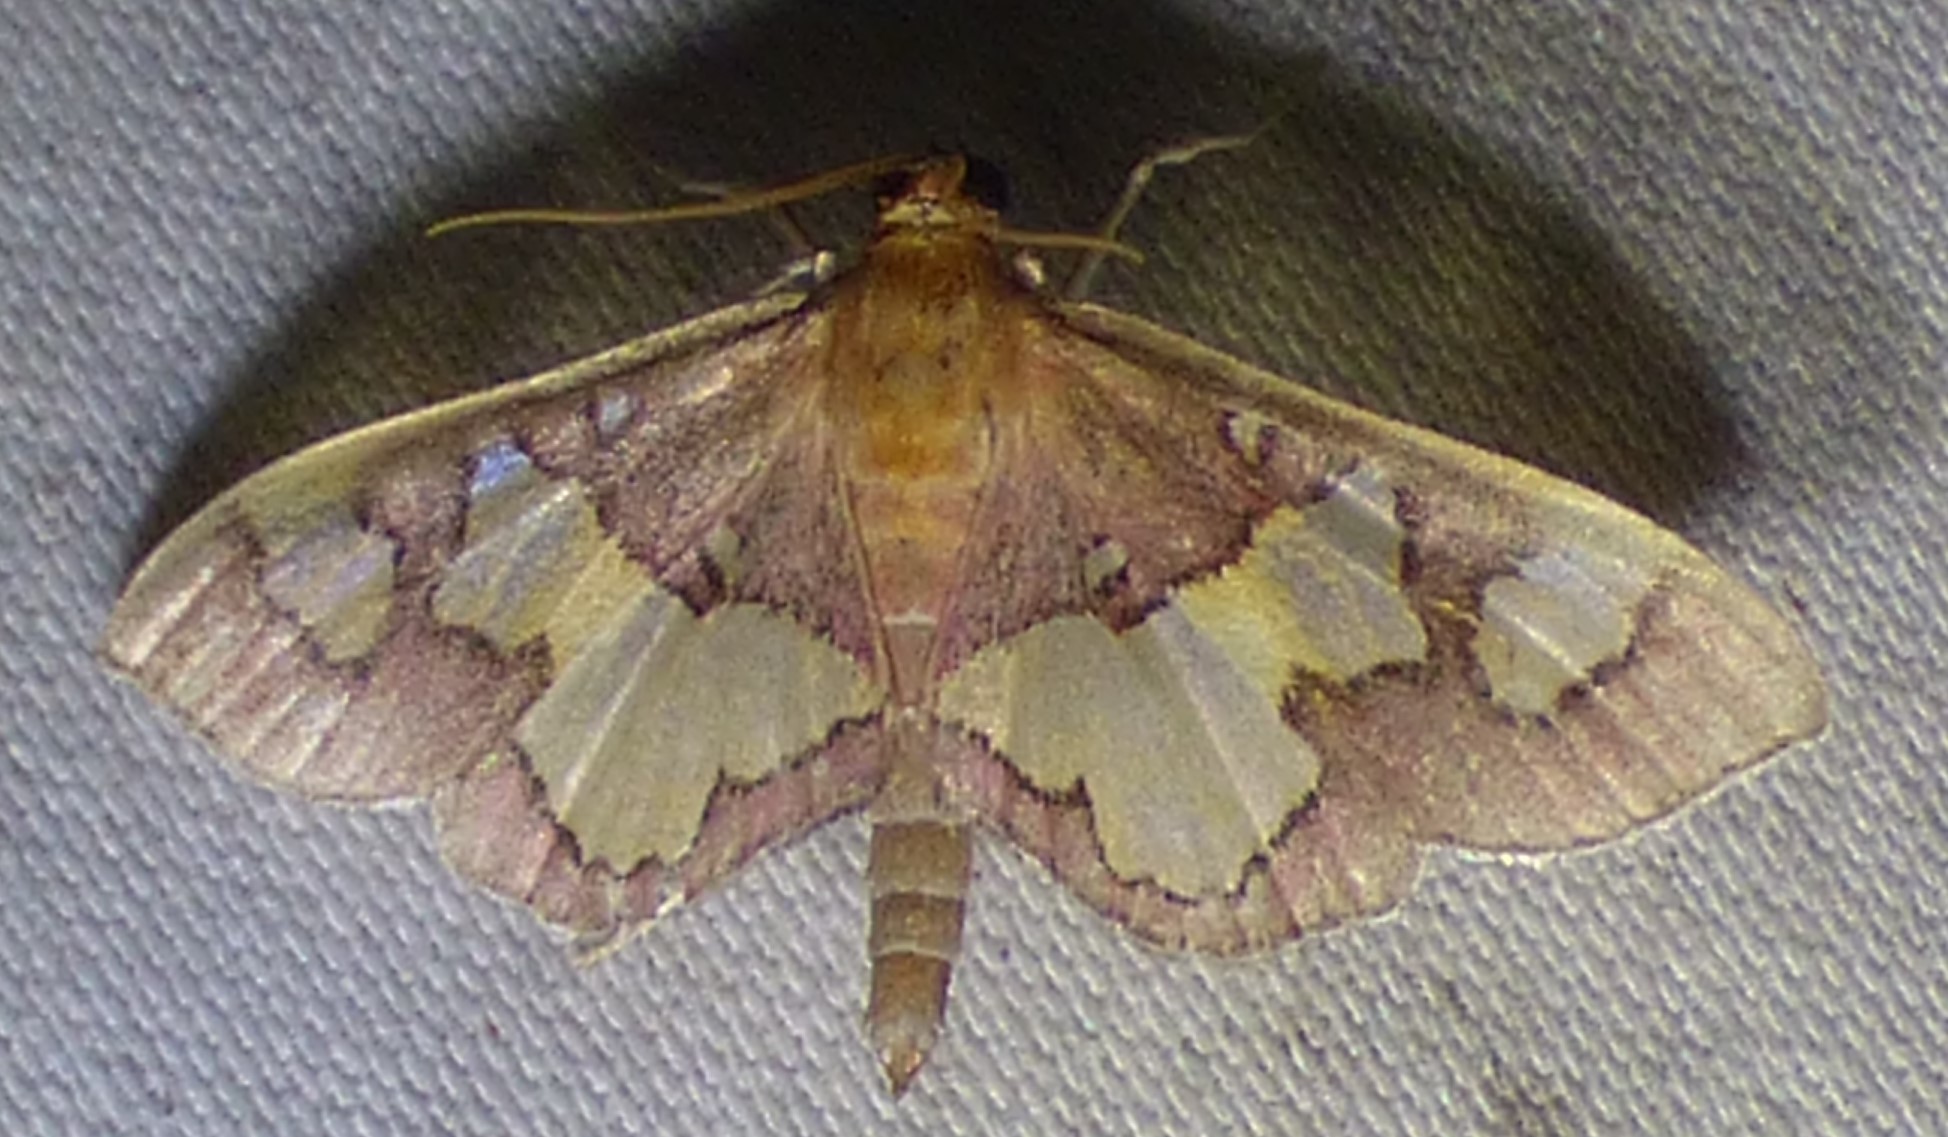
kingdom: Animalia
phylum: Arthropoda
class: Insecta
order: Lepidoptera
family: Crambidae
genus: Colomychus
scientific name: Colomychus talis
